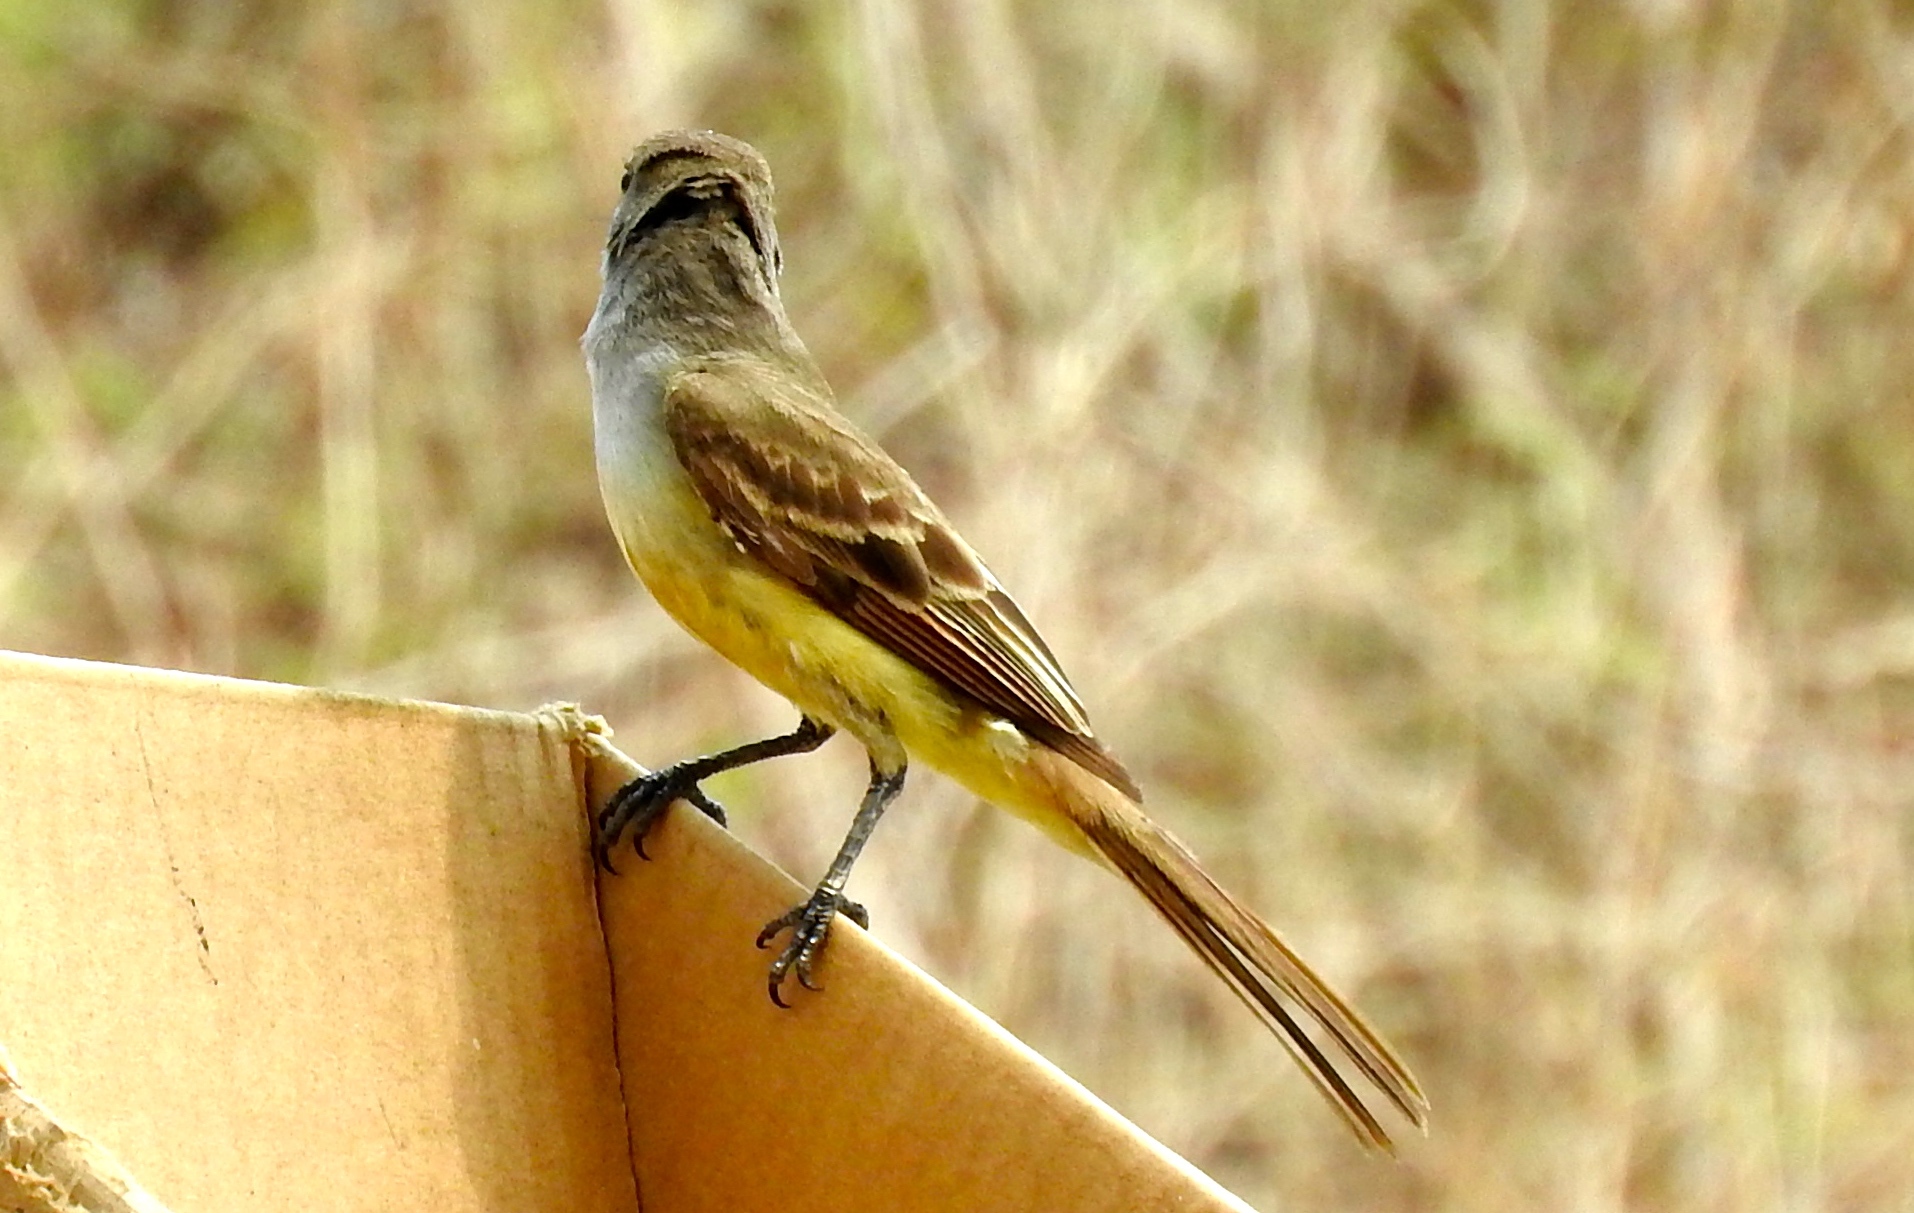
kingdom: Animalia
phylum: Chordata
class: Aves
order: Passeriformes
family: Tyrannidae
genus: Myiarchus
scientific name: Myiarchus
